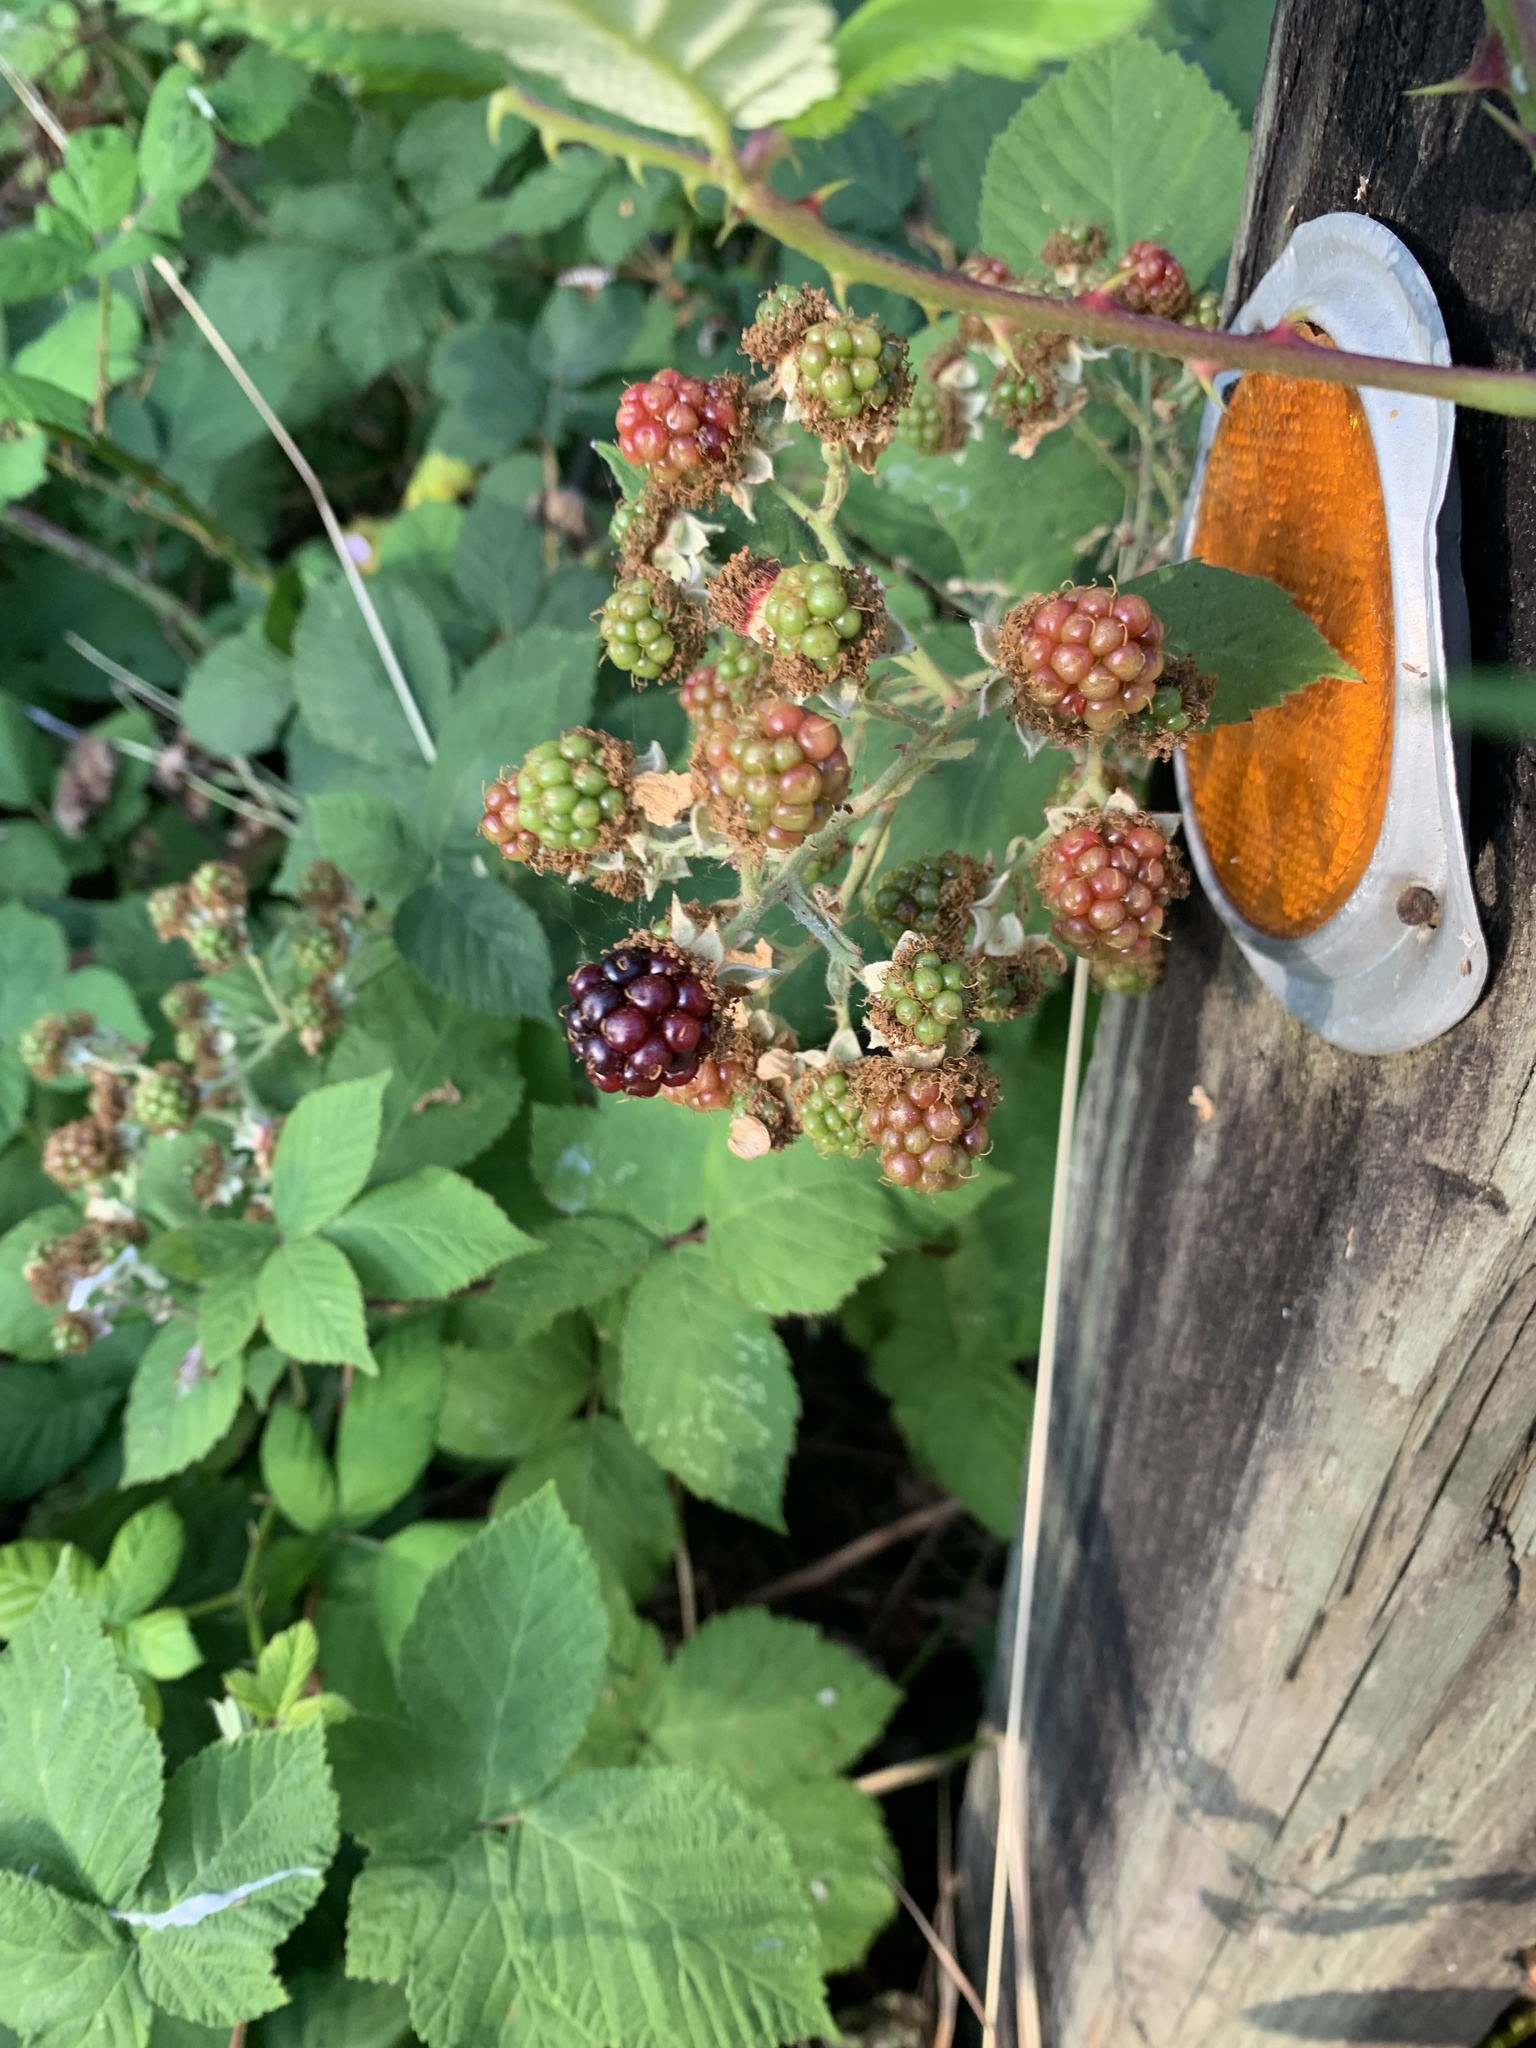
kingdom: Plantae
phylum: Tracheophyta
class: Magnoliopsida
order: Rosales
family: Rosaceae
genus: Rubus
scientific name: Rubus bifrons
